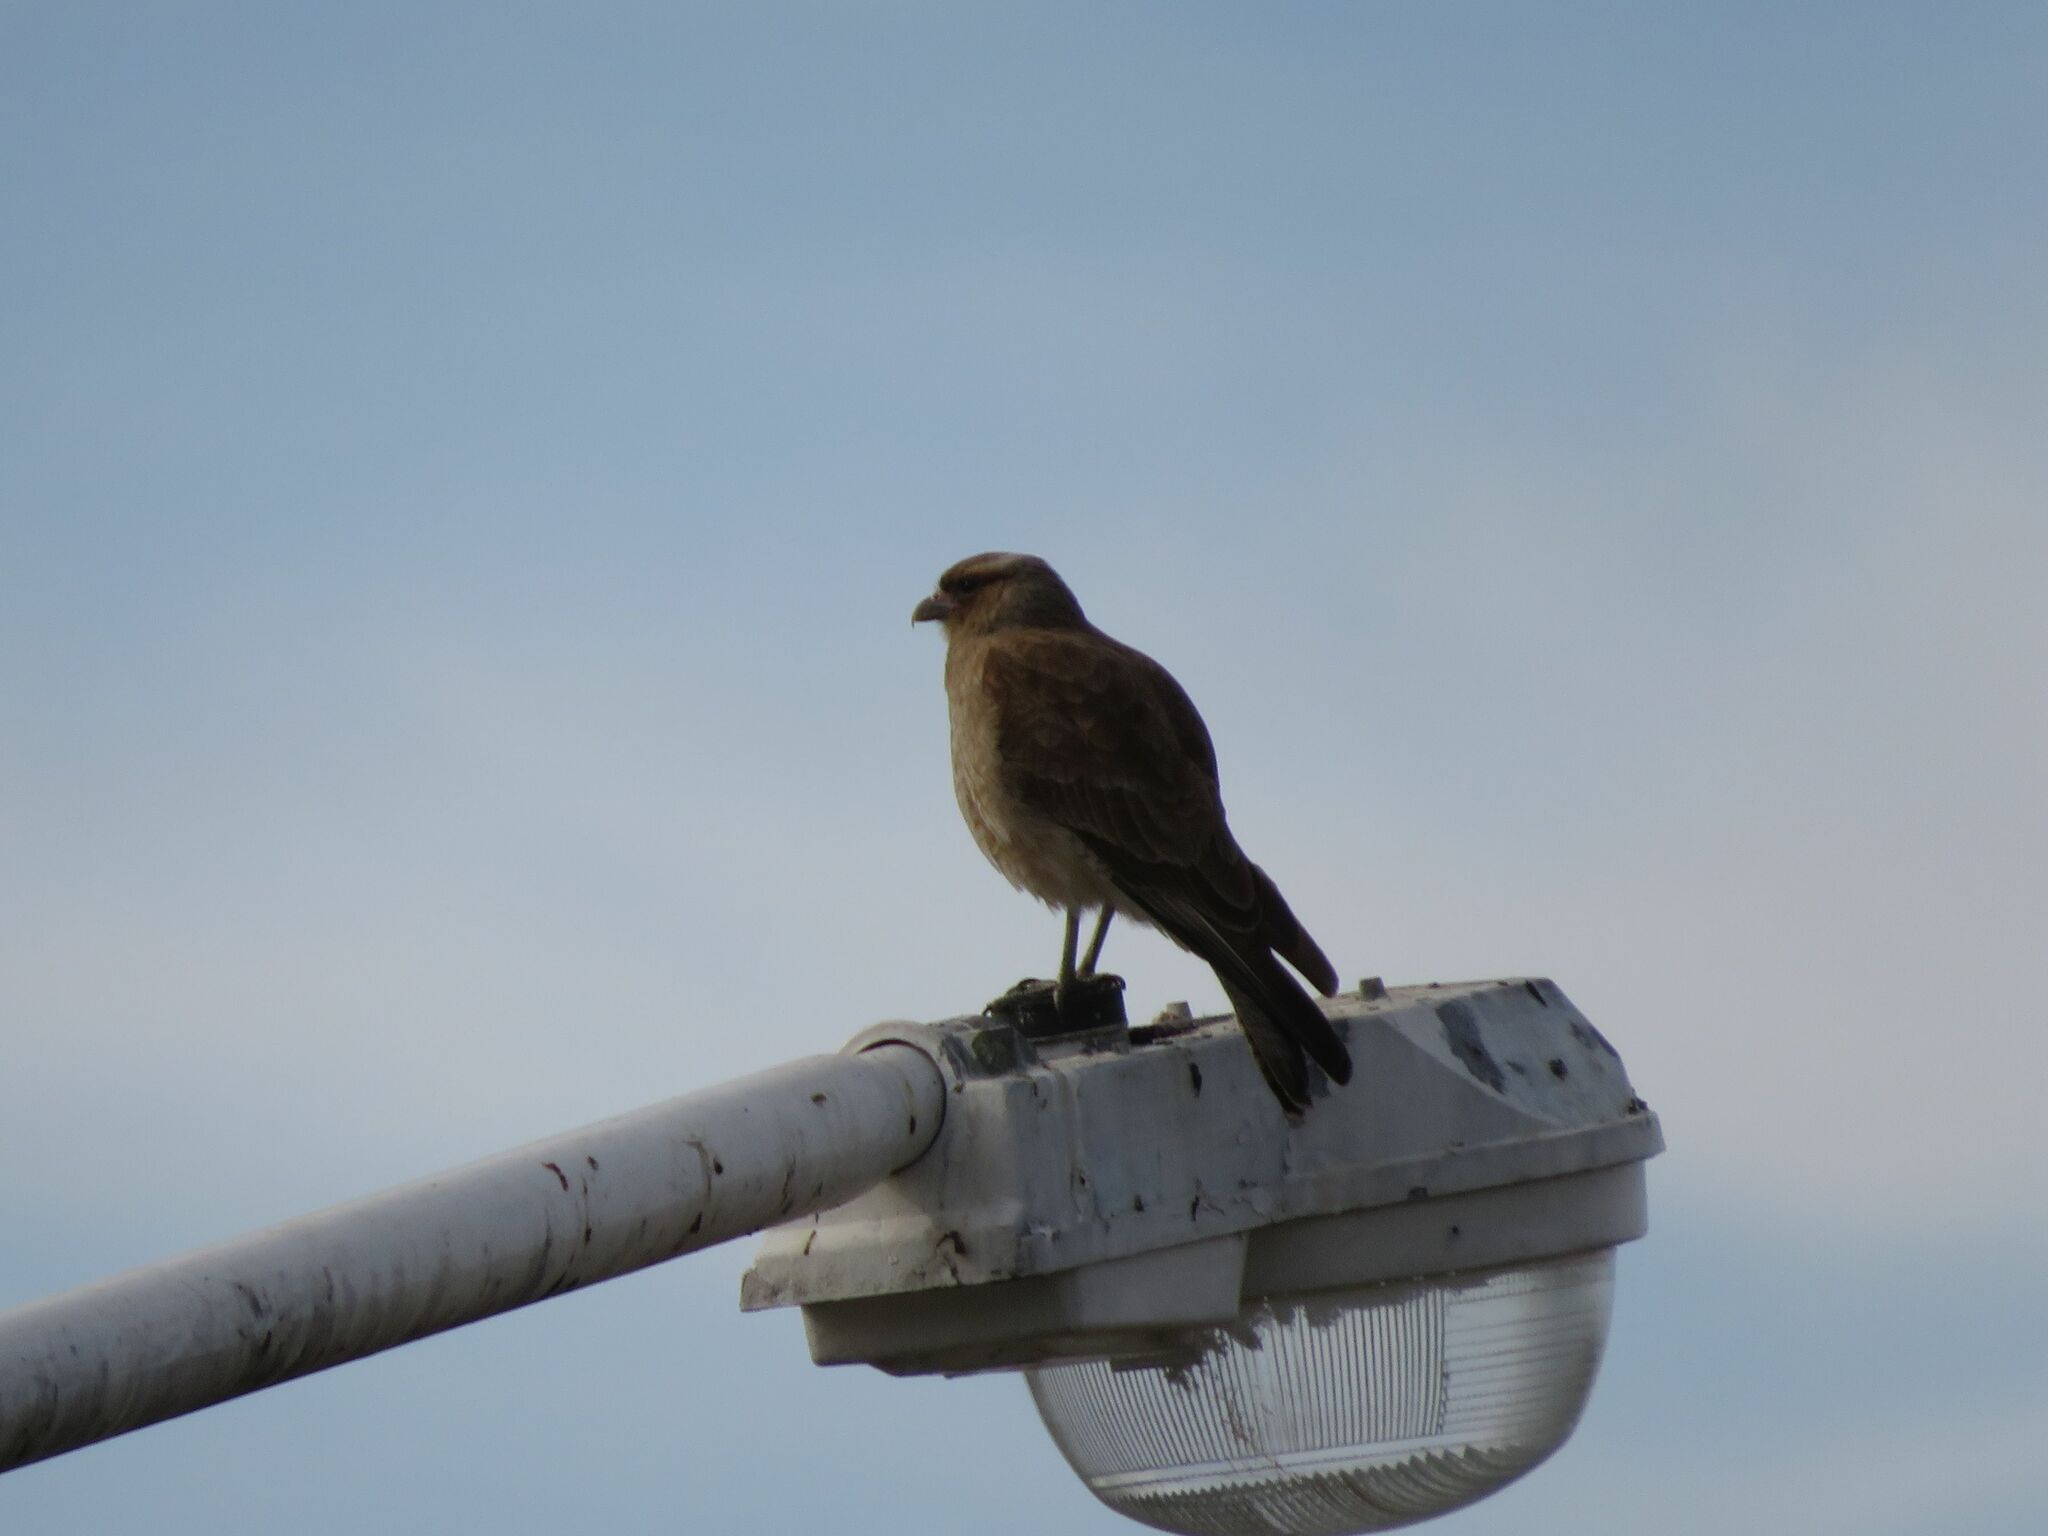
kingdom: Animalia
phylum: Chordata
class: Aves
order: Falconiformes
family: Falconidae
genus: Daptrius
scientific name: Daptrius
